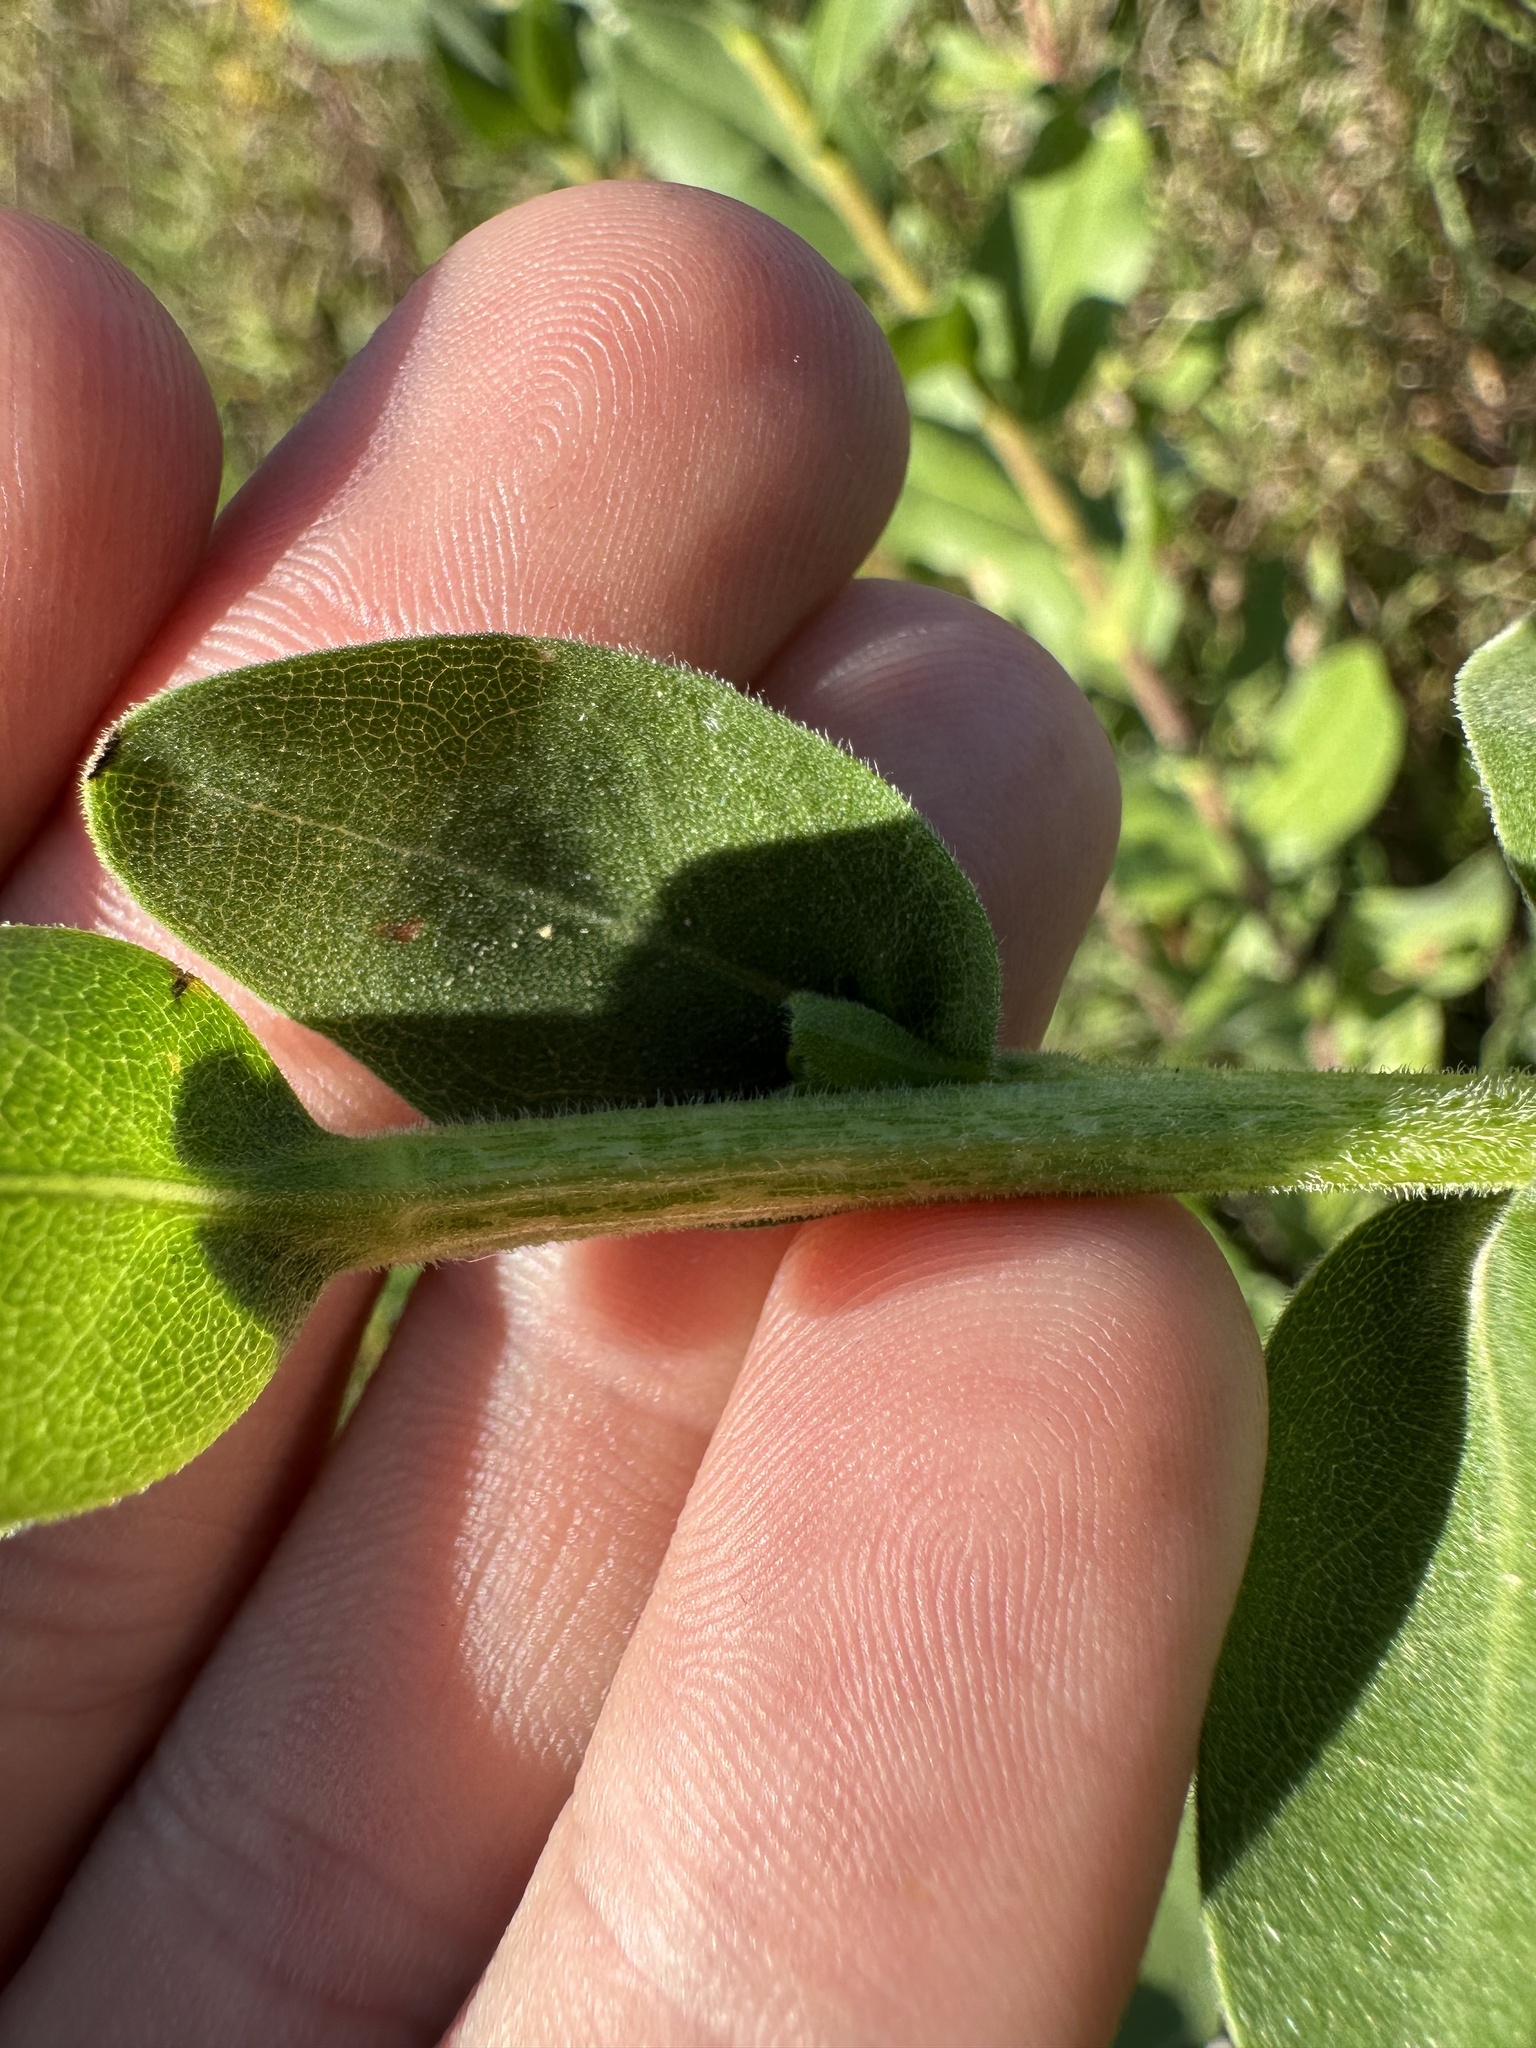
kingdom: Plantae
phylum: Tracheophyta
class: Magnoliopsida
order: Asterales
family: Asteraceae
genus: Solidago
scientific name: Solidago rigida
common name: Rigid goldenrod
